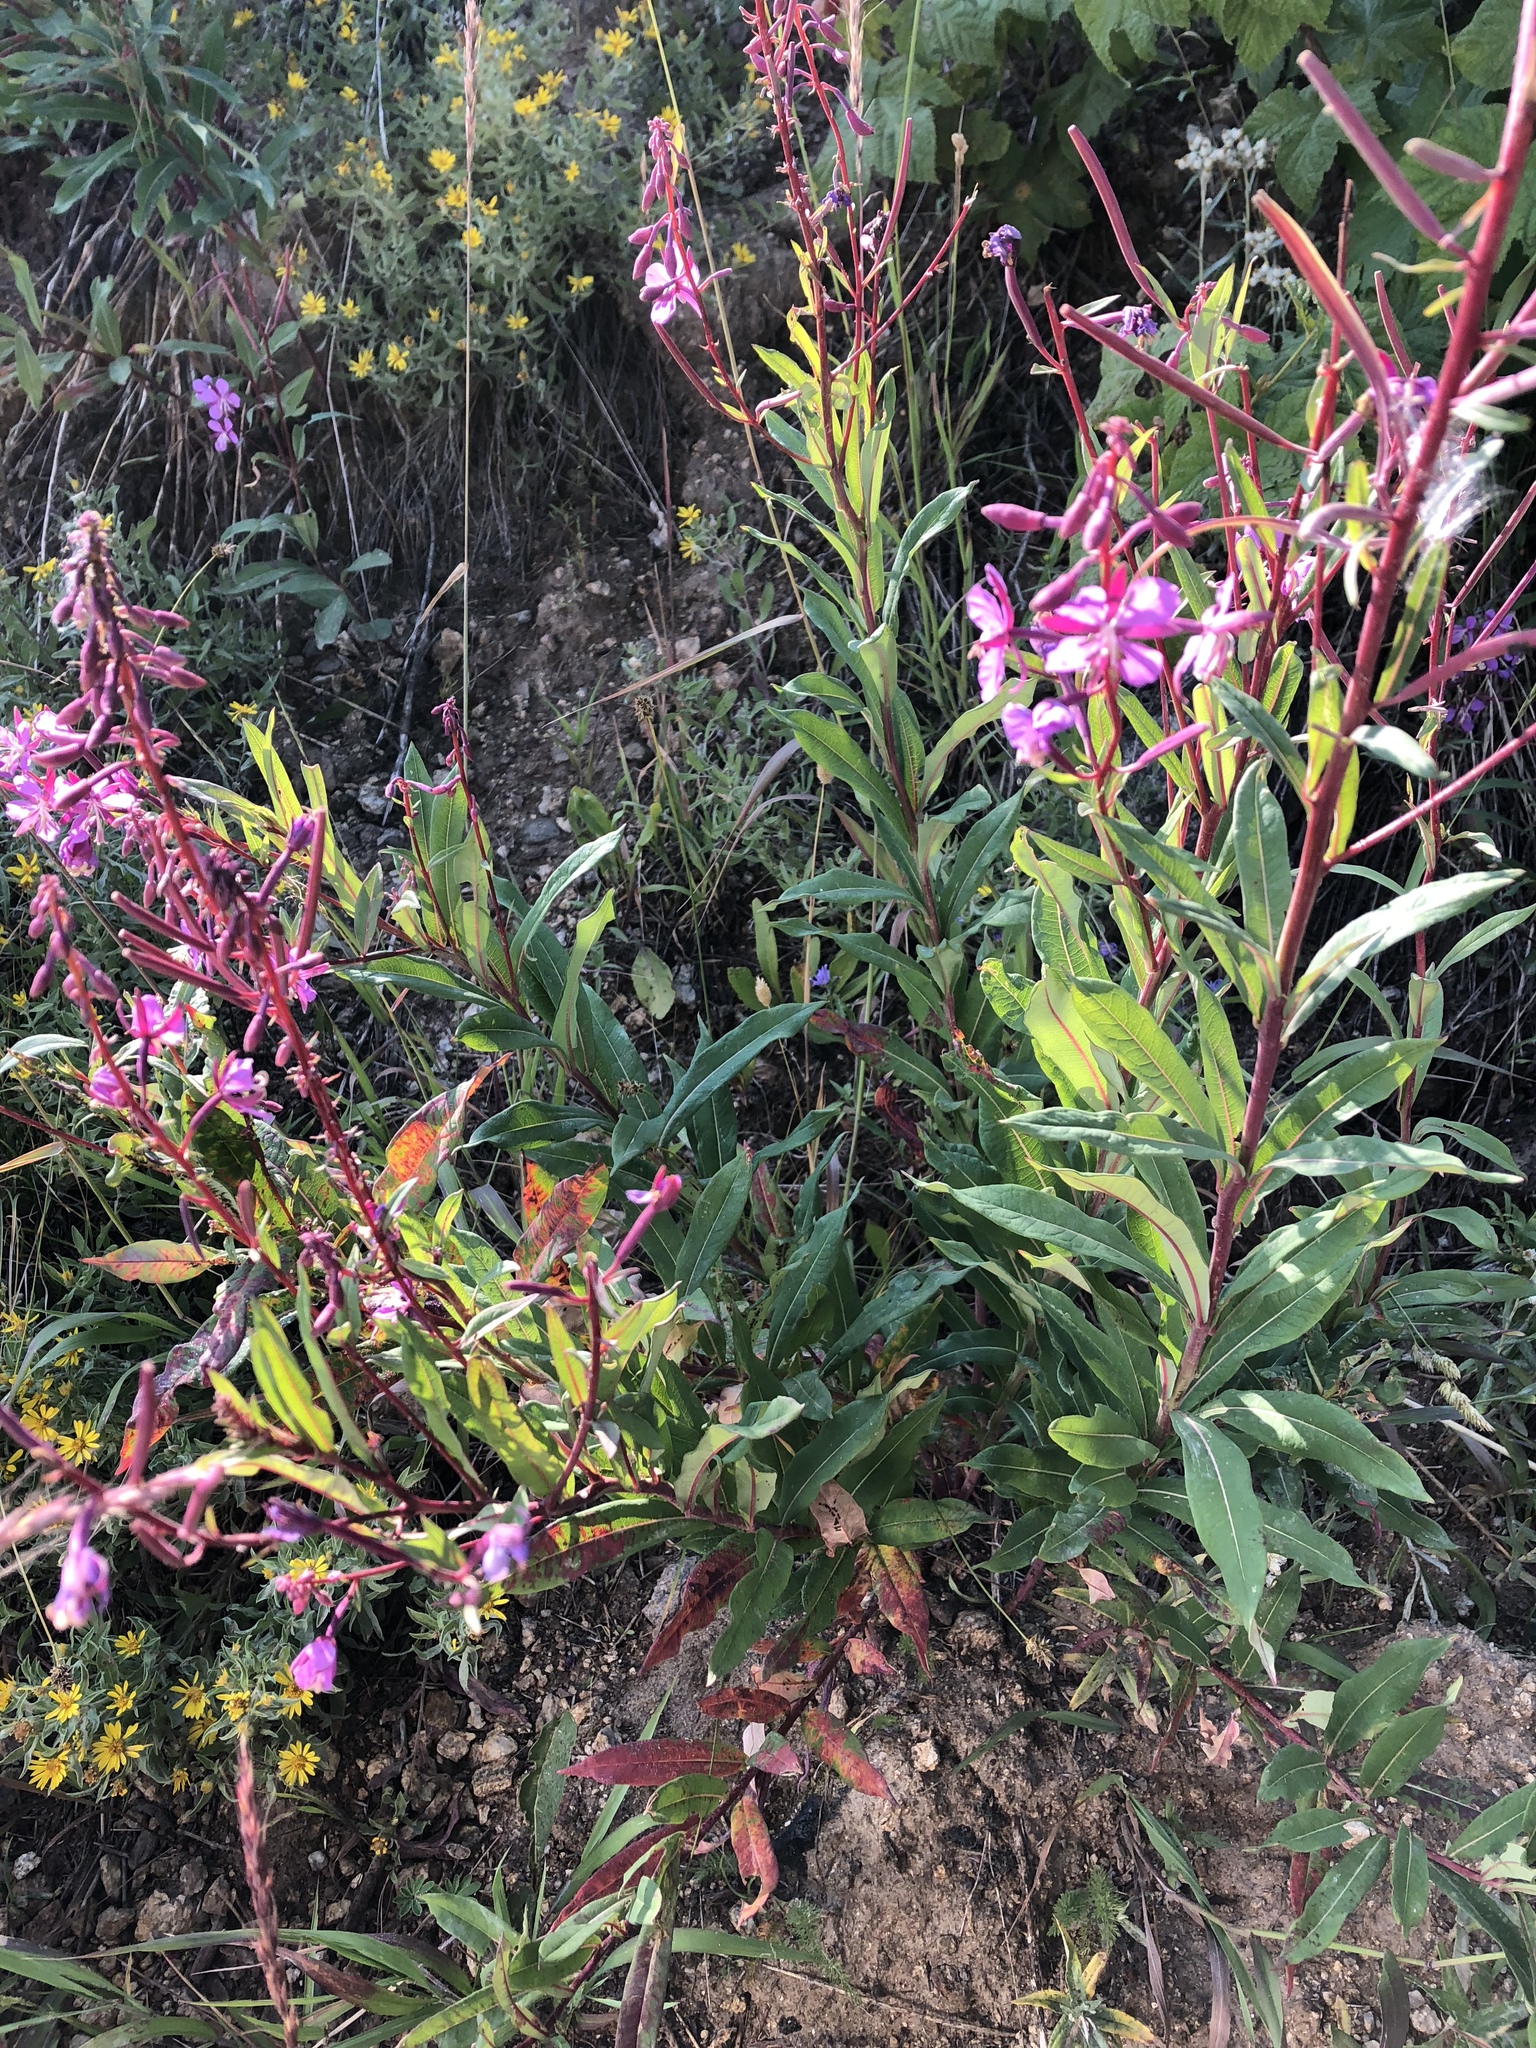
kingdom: Plantae
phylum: Tracheophyta
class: Magnoliopsida
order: Myrtales
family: Onagraceae
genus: Chamaenerion
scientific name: Chamaenerion angustifolium
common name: Fireweed
